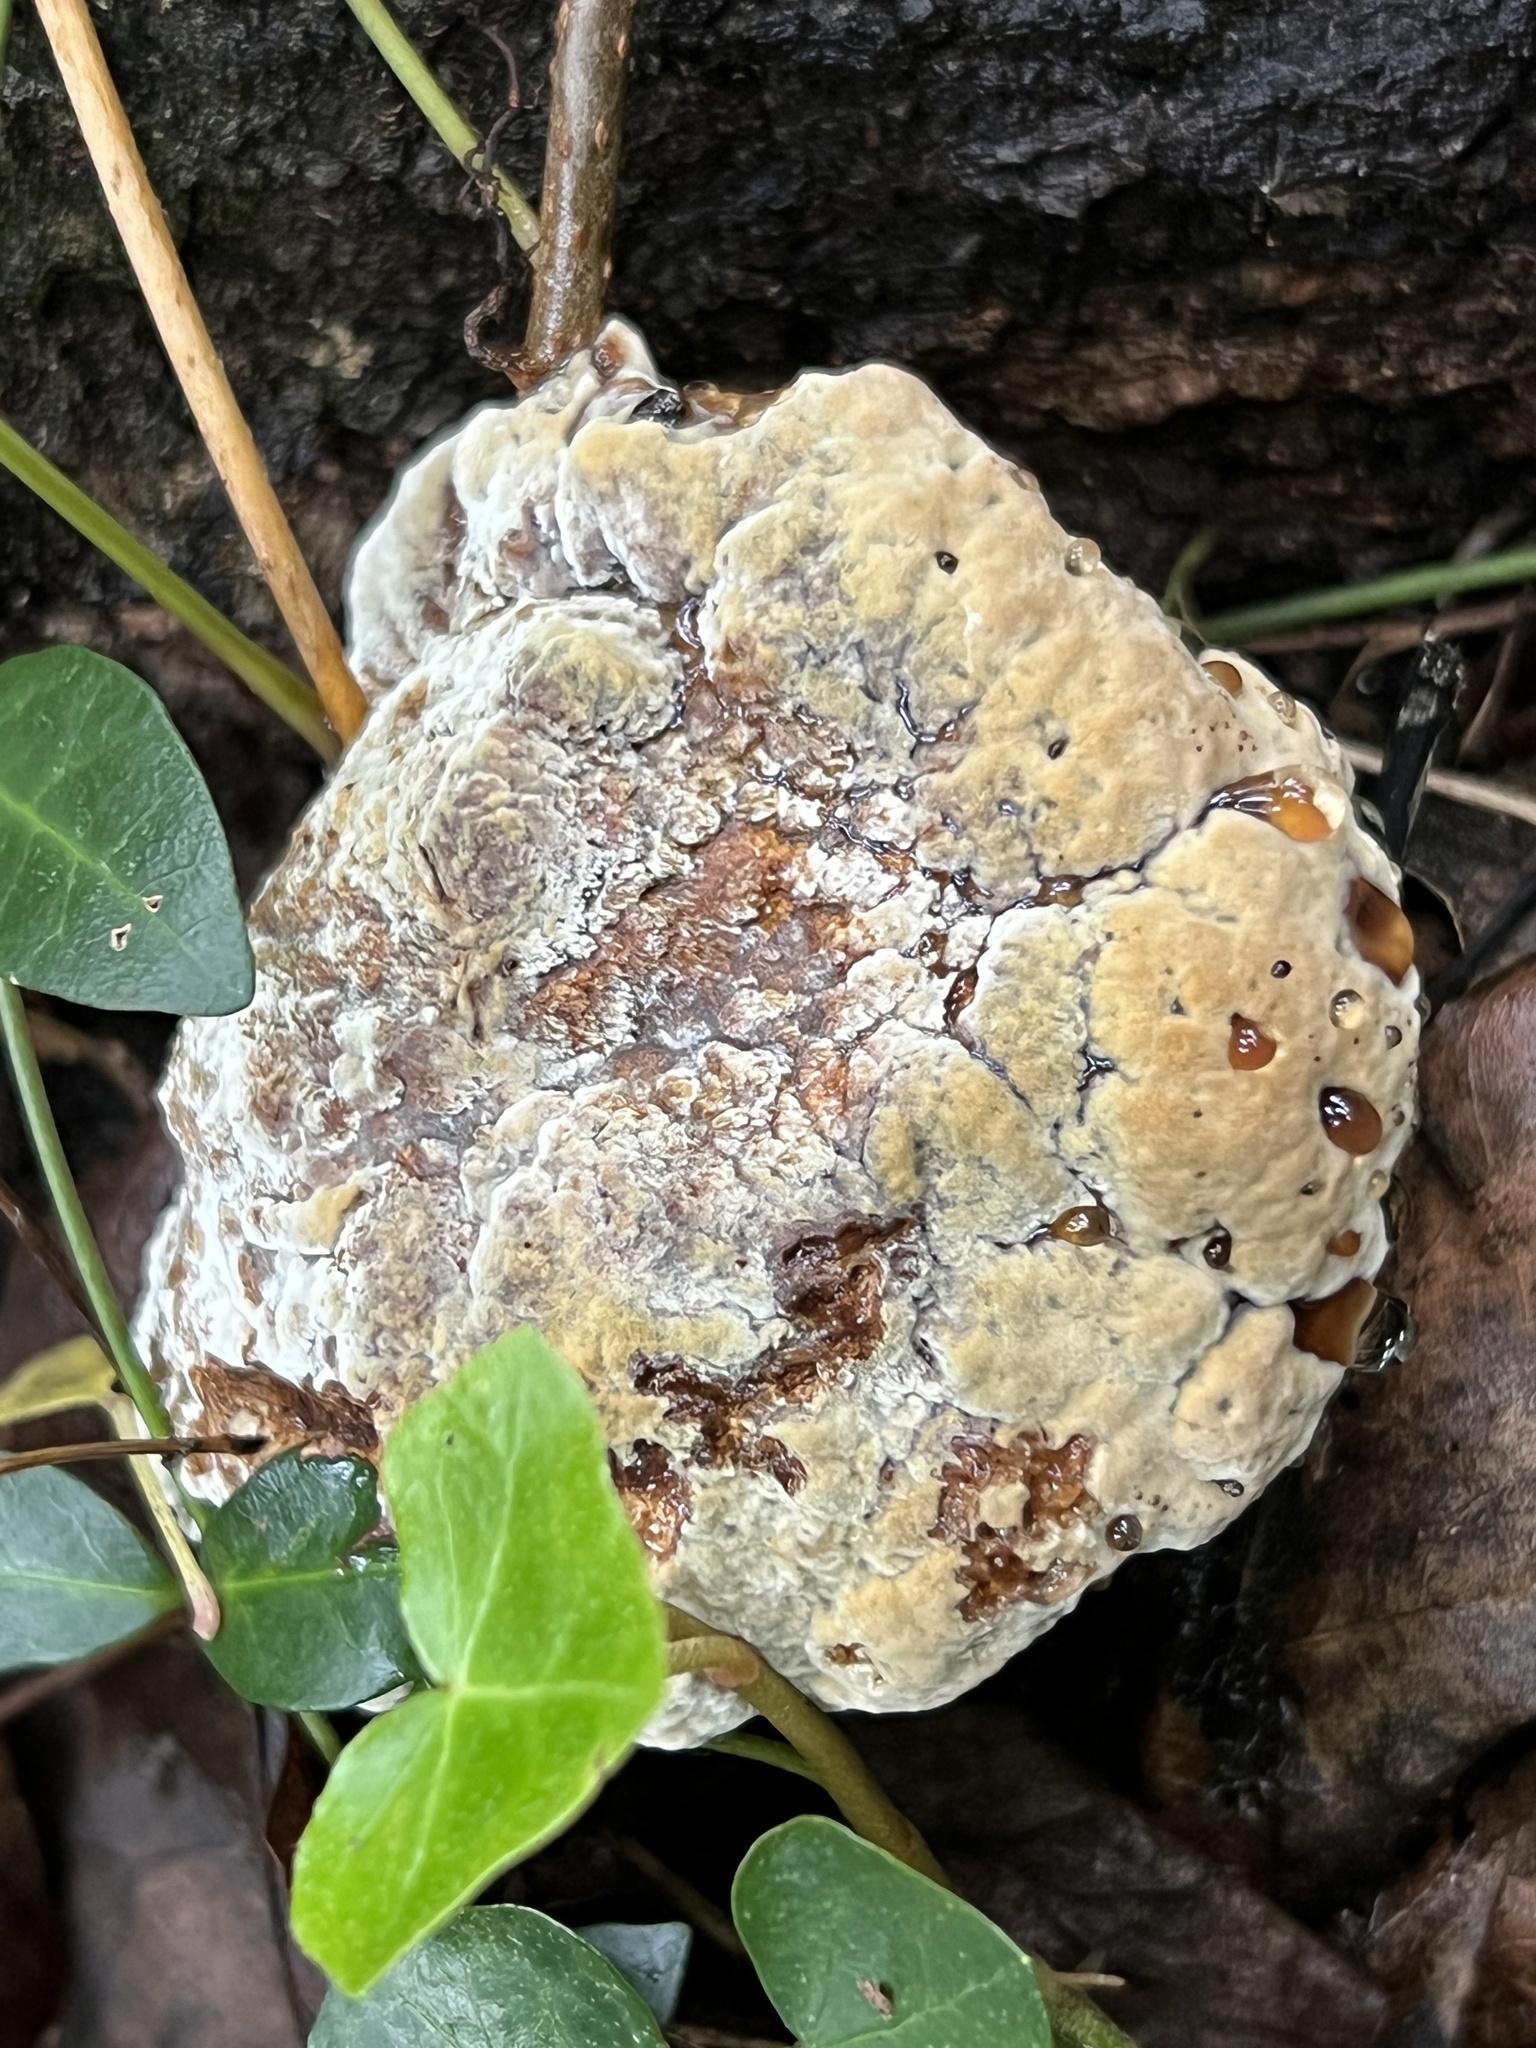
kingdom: Fungi
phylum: Basidiomycota
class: Agaricomycetes
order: Hymenochaetales
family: Hymenochaetaceae
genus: Pseudoinonotus
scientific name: Pseudoinonotus dryadeus
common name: Oak bracket
